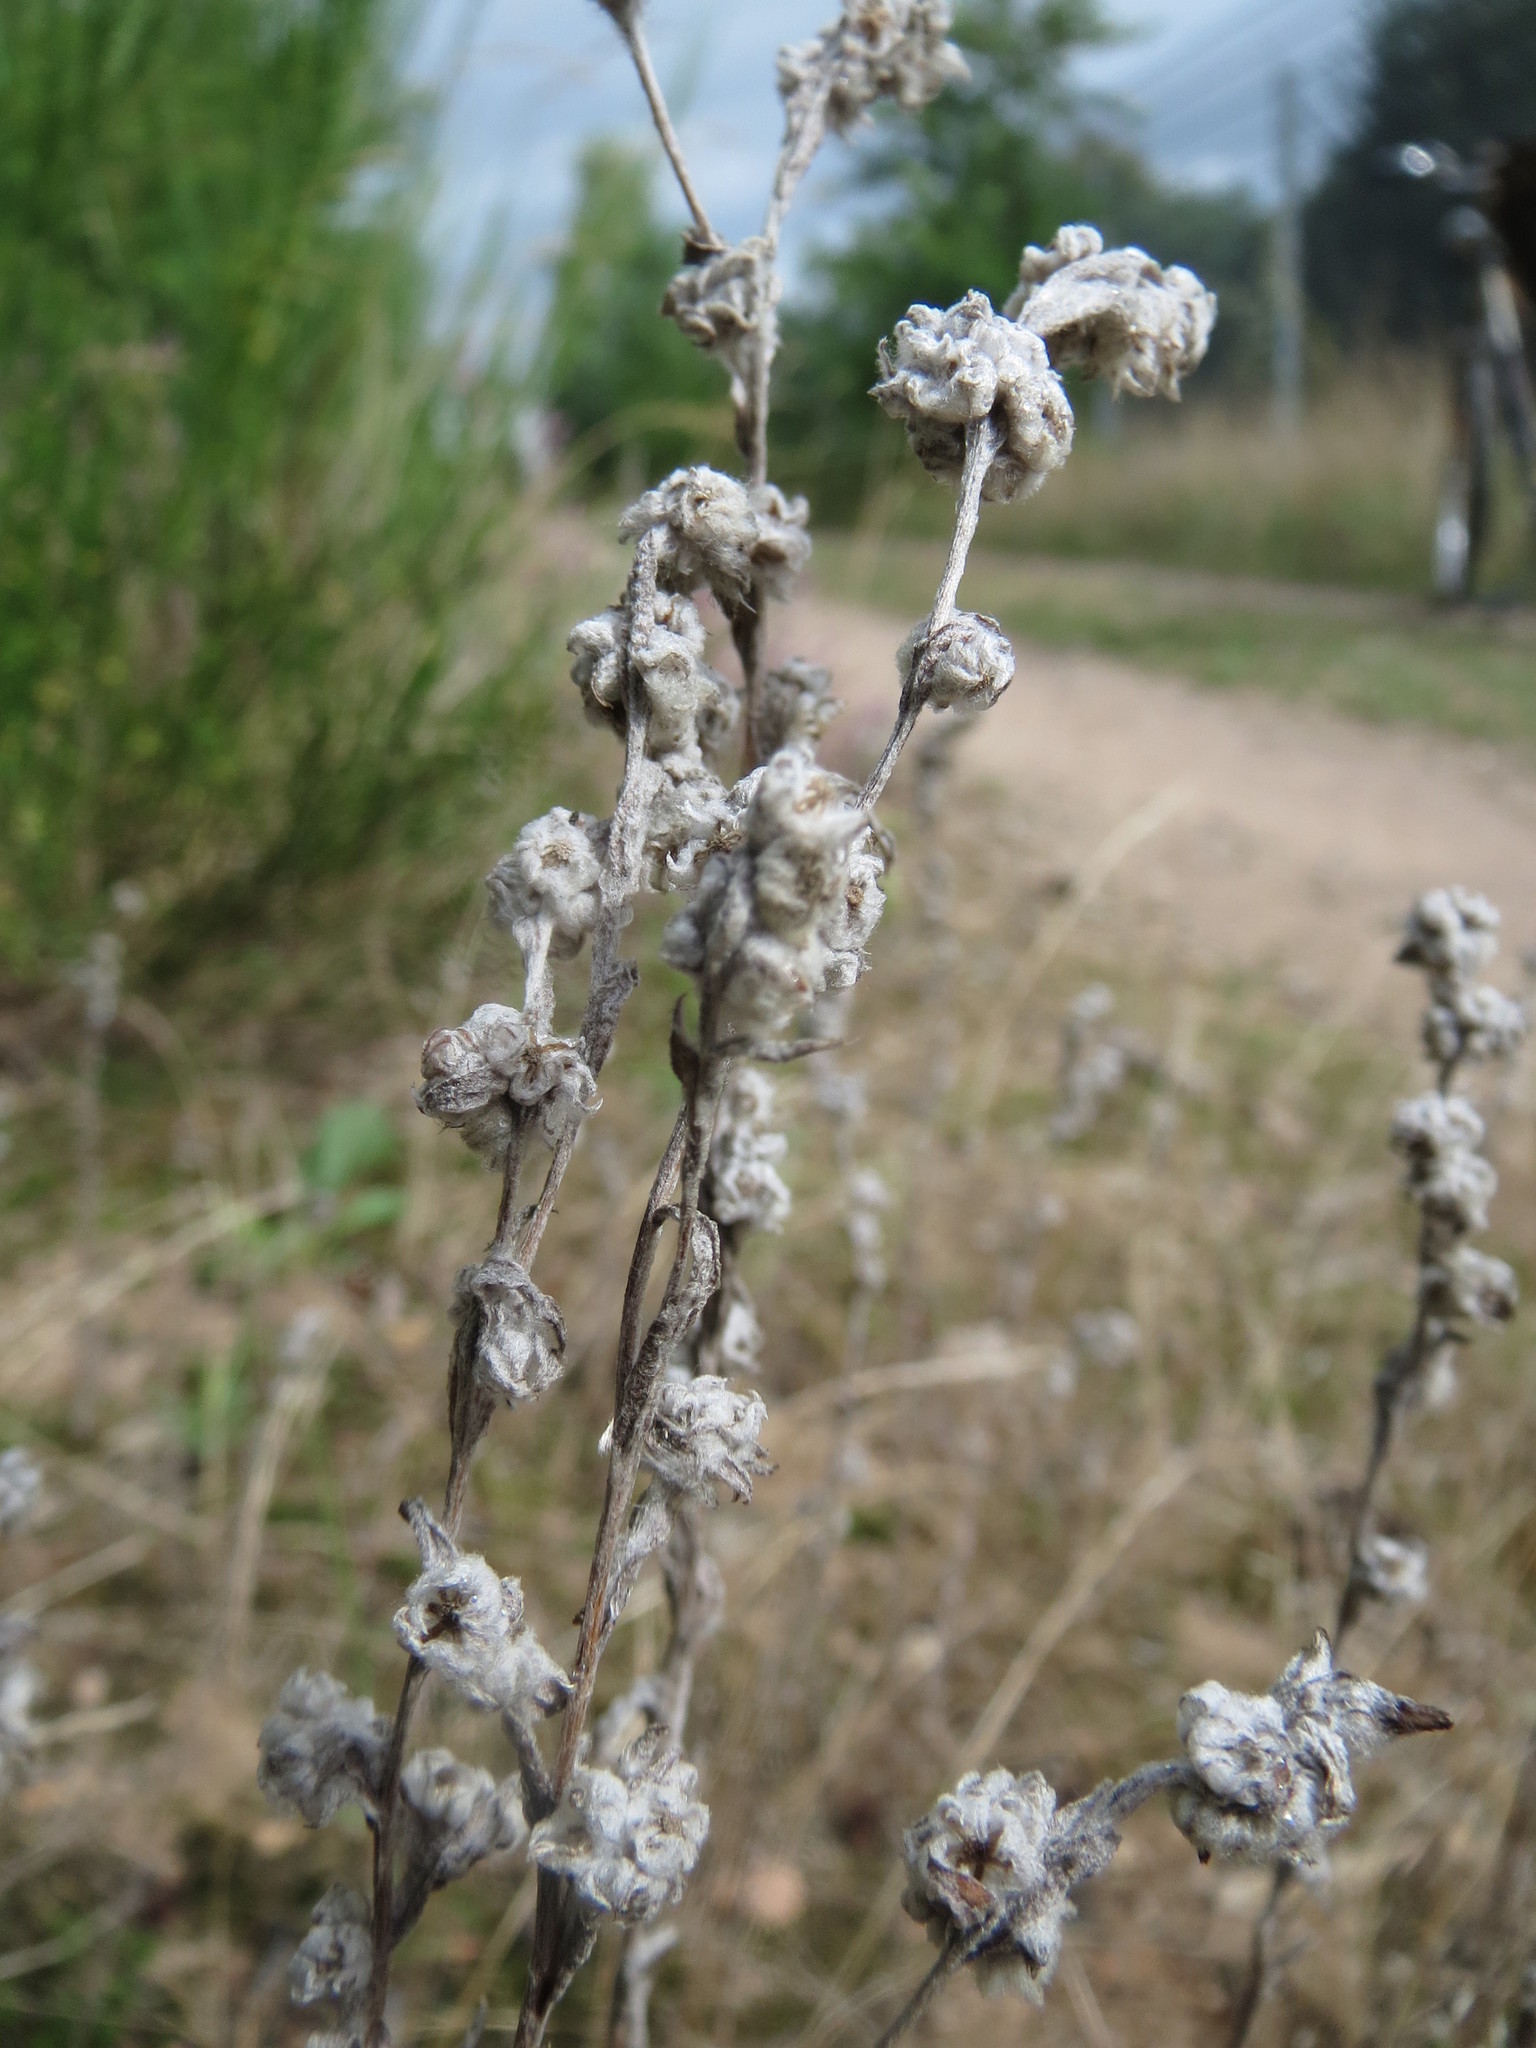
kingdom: Plantae
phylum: Tracheophyta
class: Magnoliopsida
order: Asterales
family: Asteraceae
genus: Filago
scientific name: Filago arvensis
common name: Field cudweed
